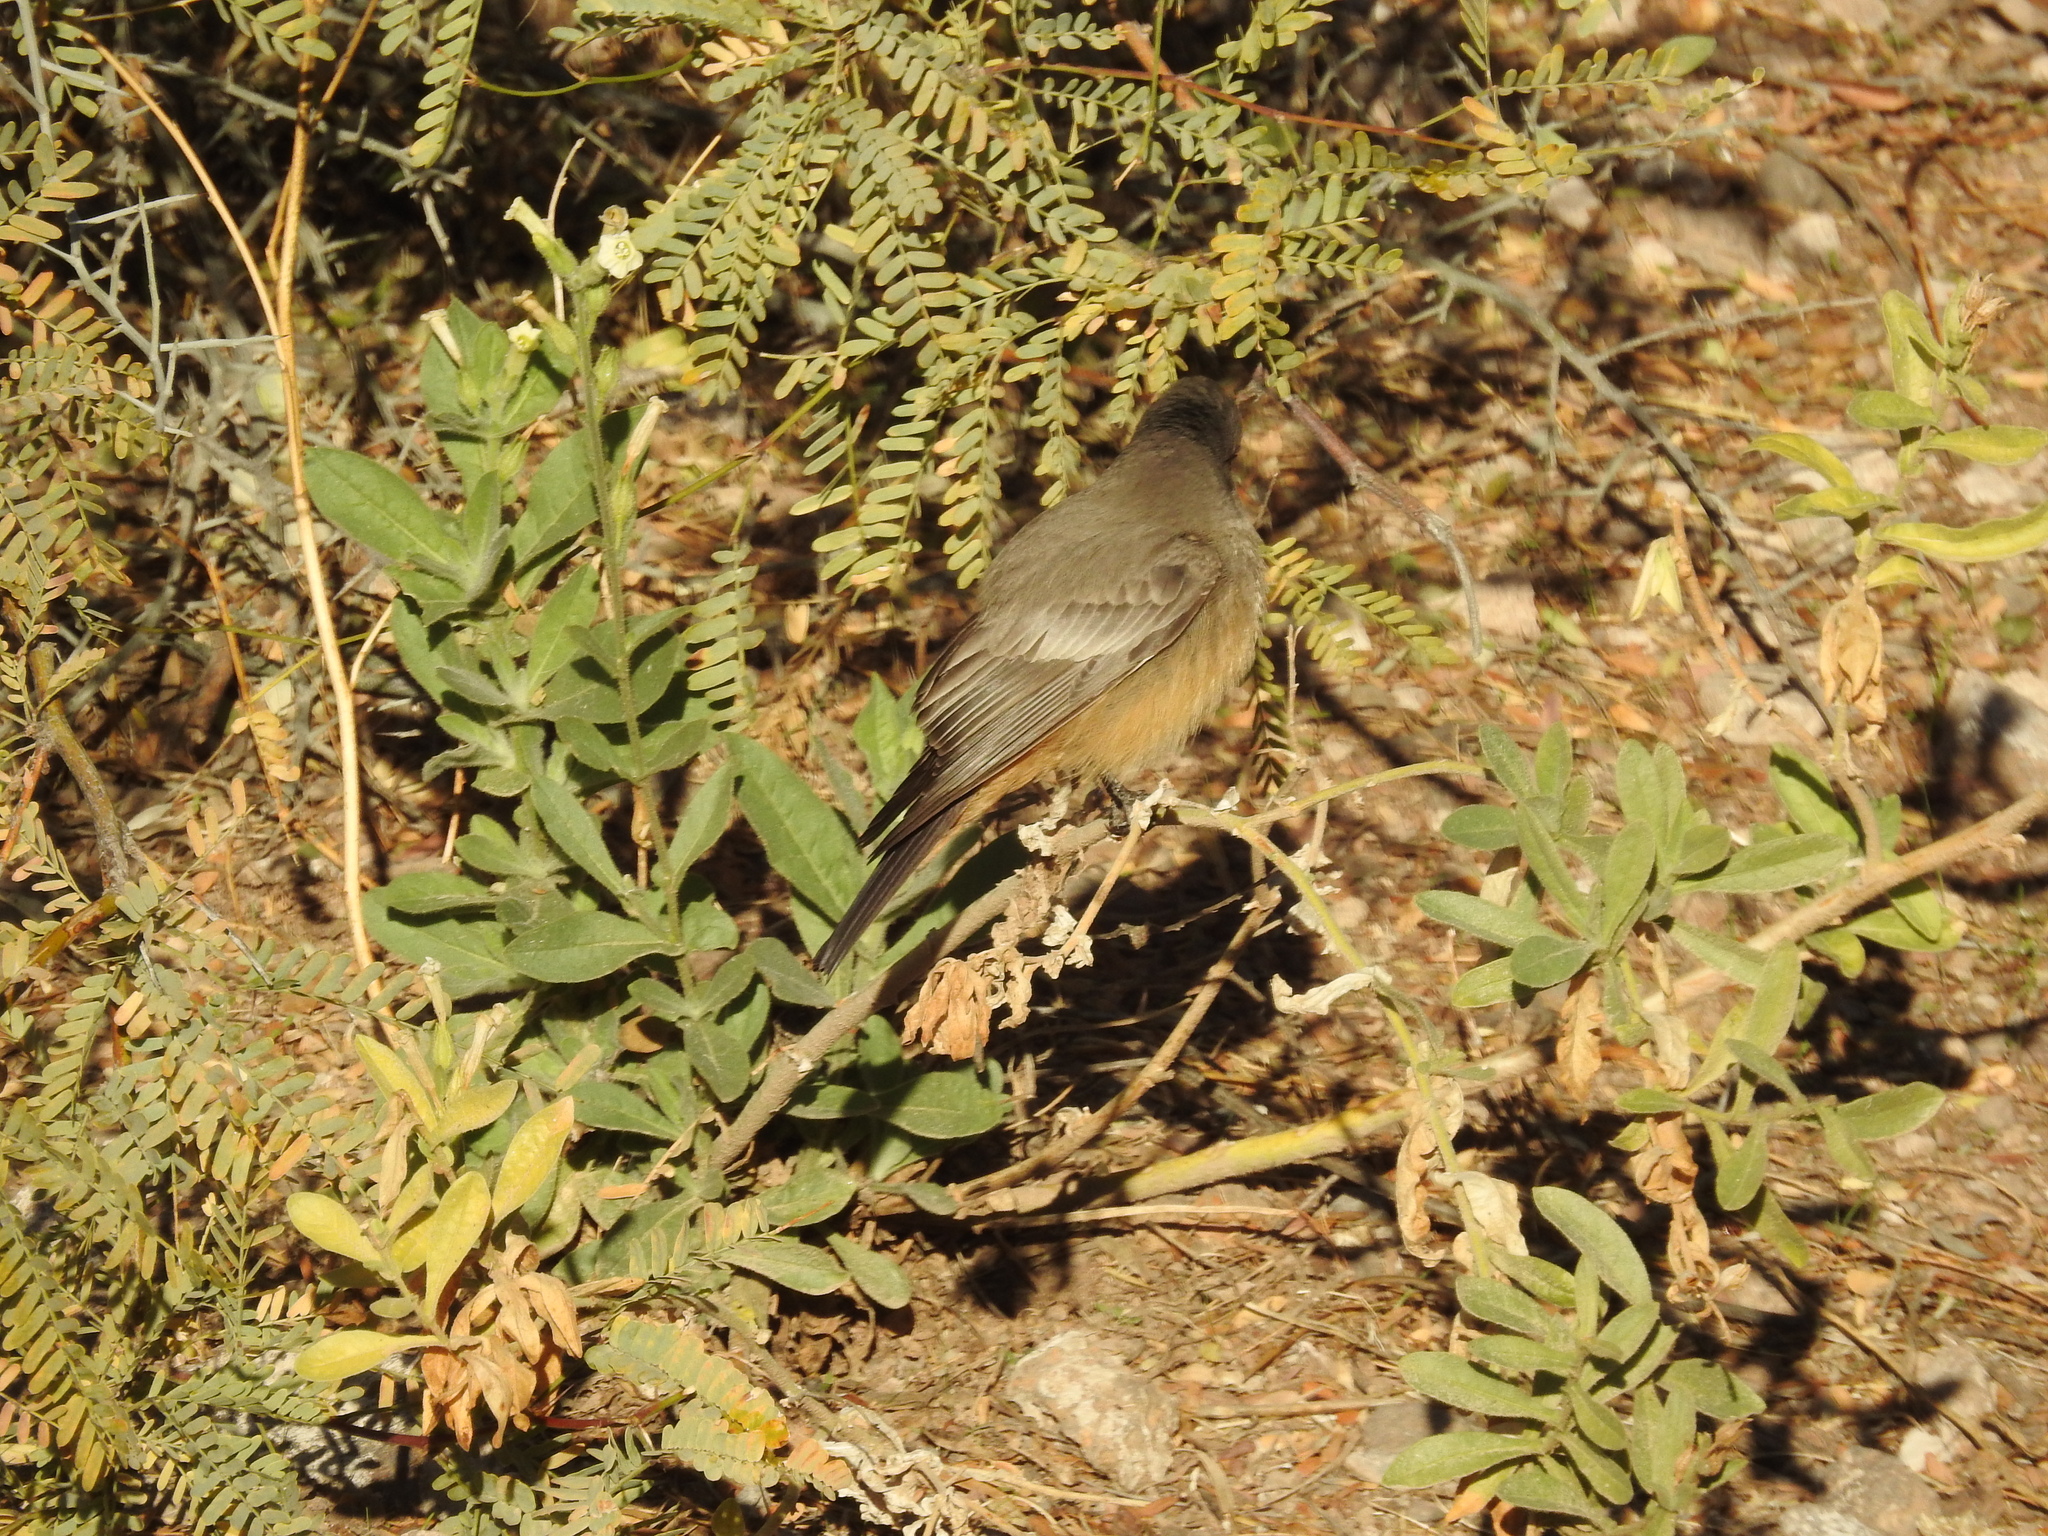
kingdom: Animalia
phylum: Chordata
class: Aves
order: Passeriformes
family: Tyrannidae
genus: Sayornis
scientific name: Sayornis saya
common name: Say's phoebe
